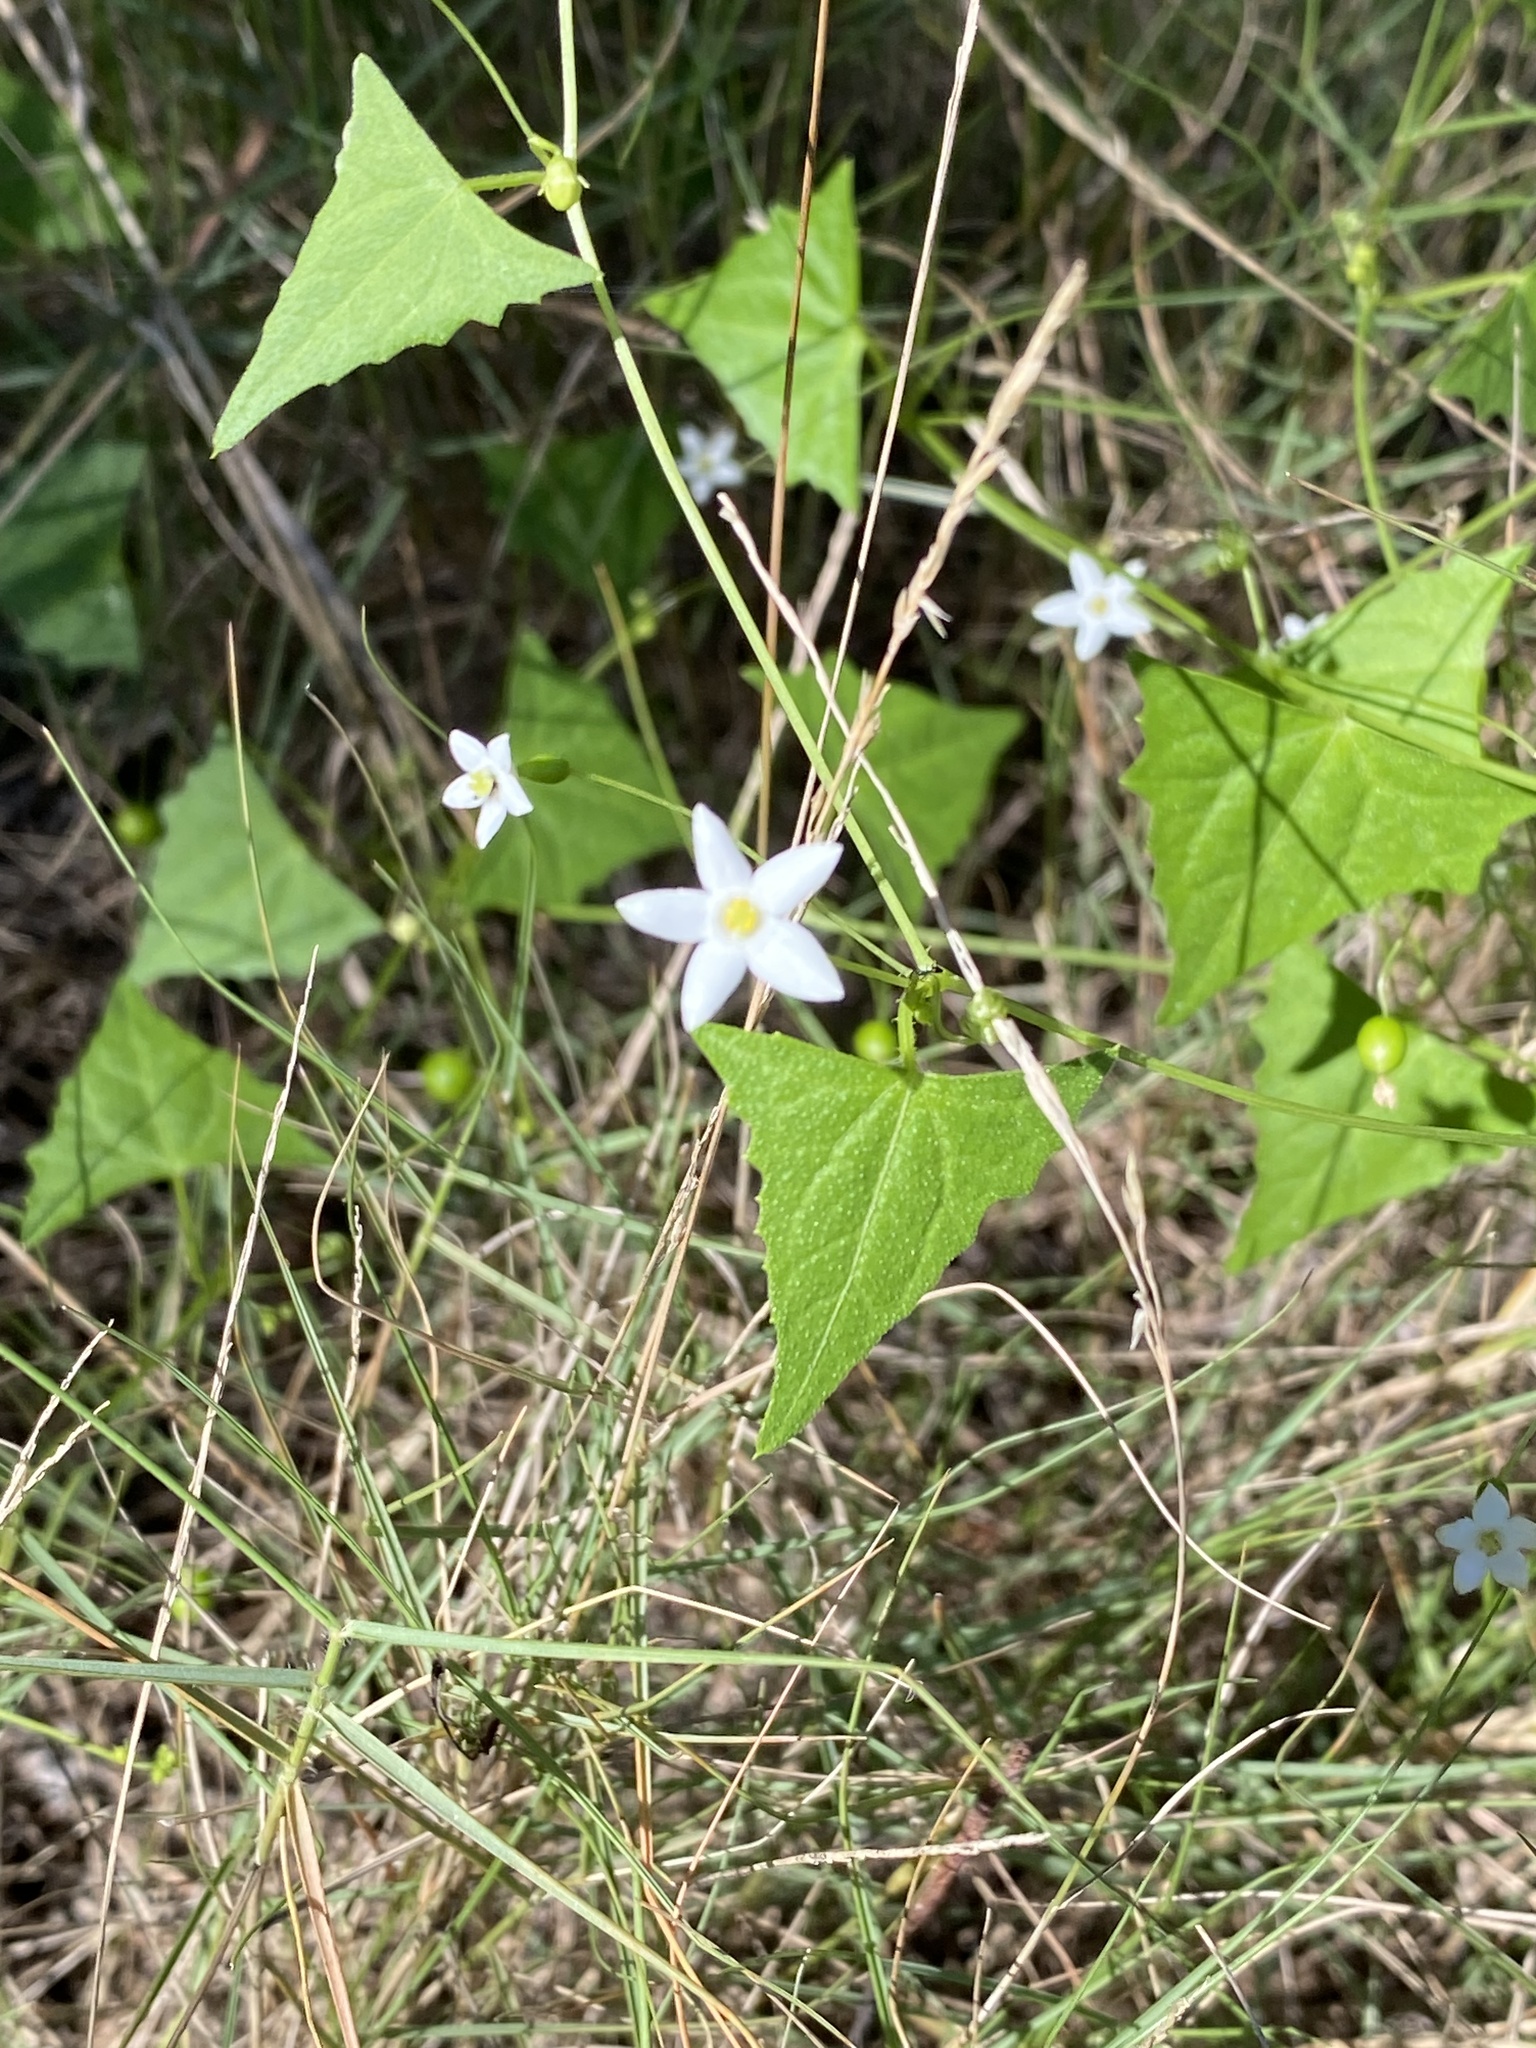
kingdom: Plantae
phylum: Tracheophyta
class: Magnoliopsida
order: Cucurbitales
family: Cucurbitaceae
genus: Zehneria
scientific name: Zehneria cunninghamii
